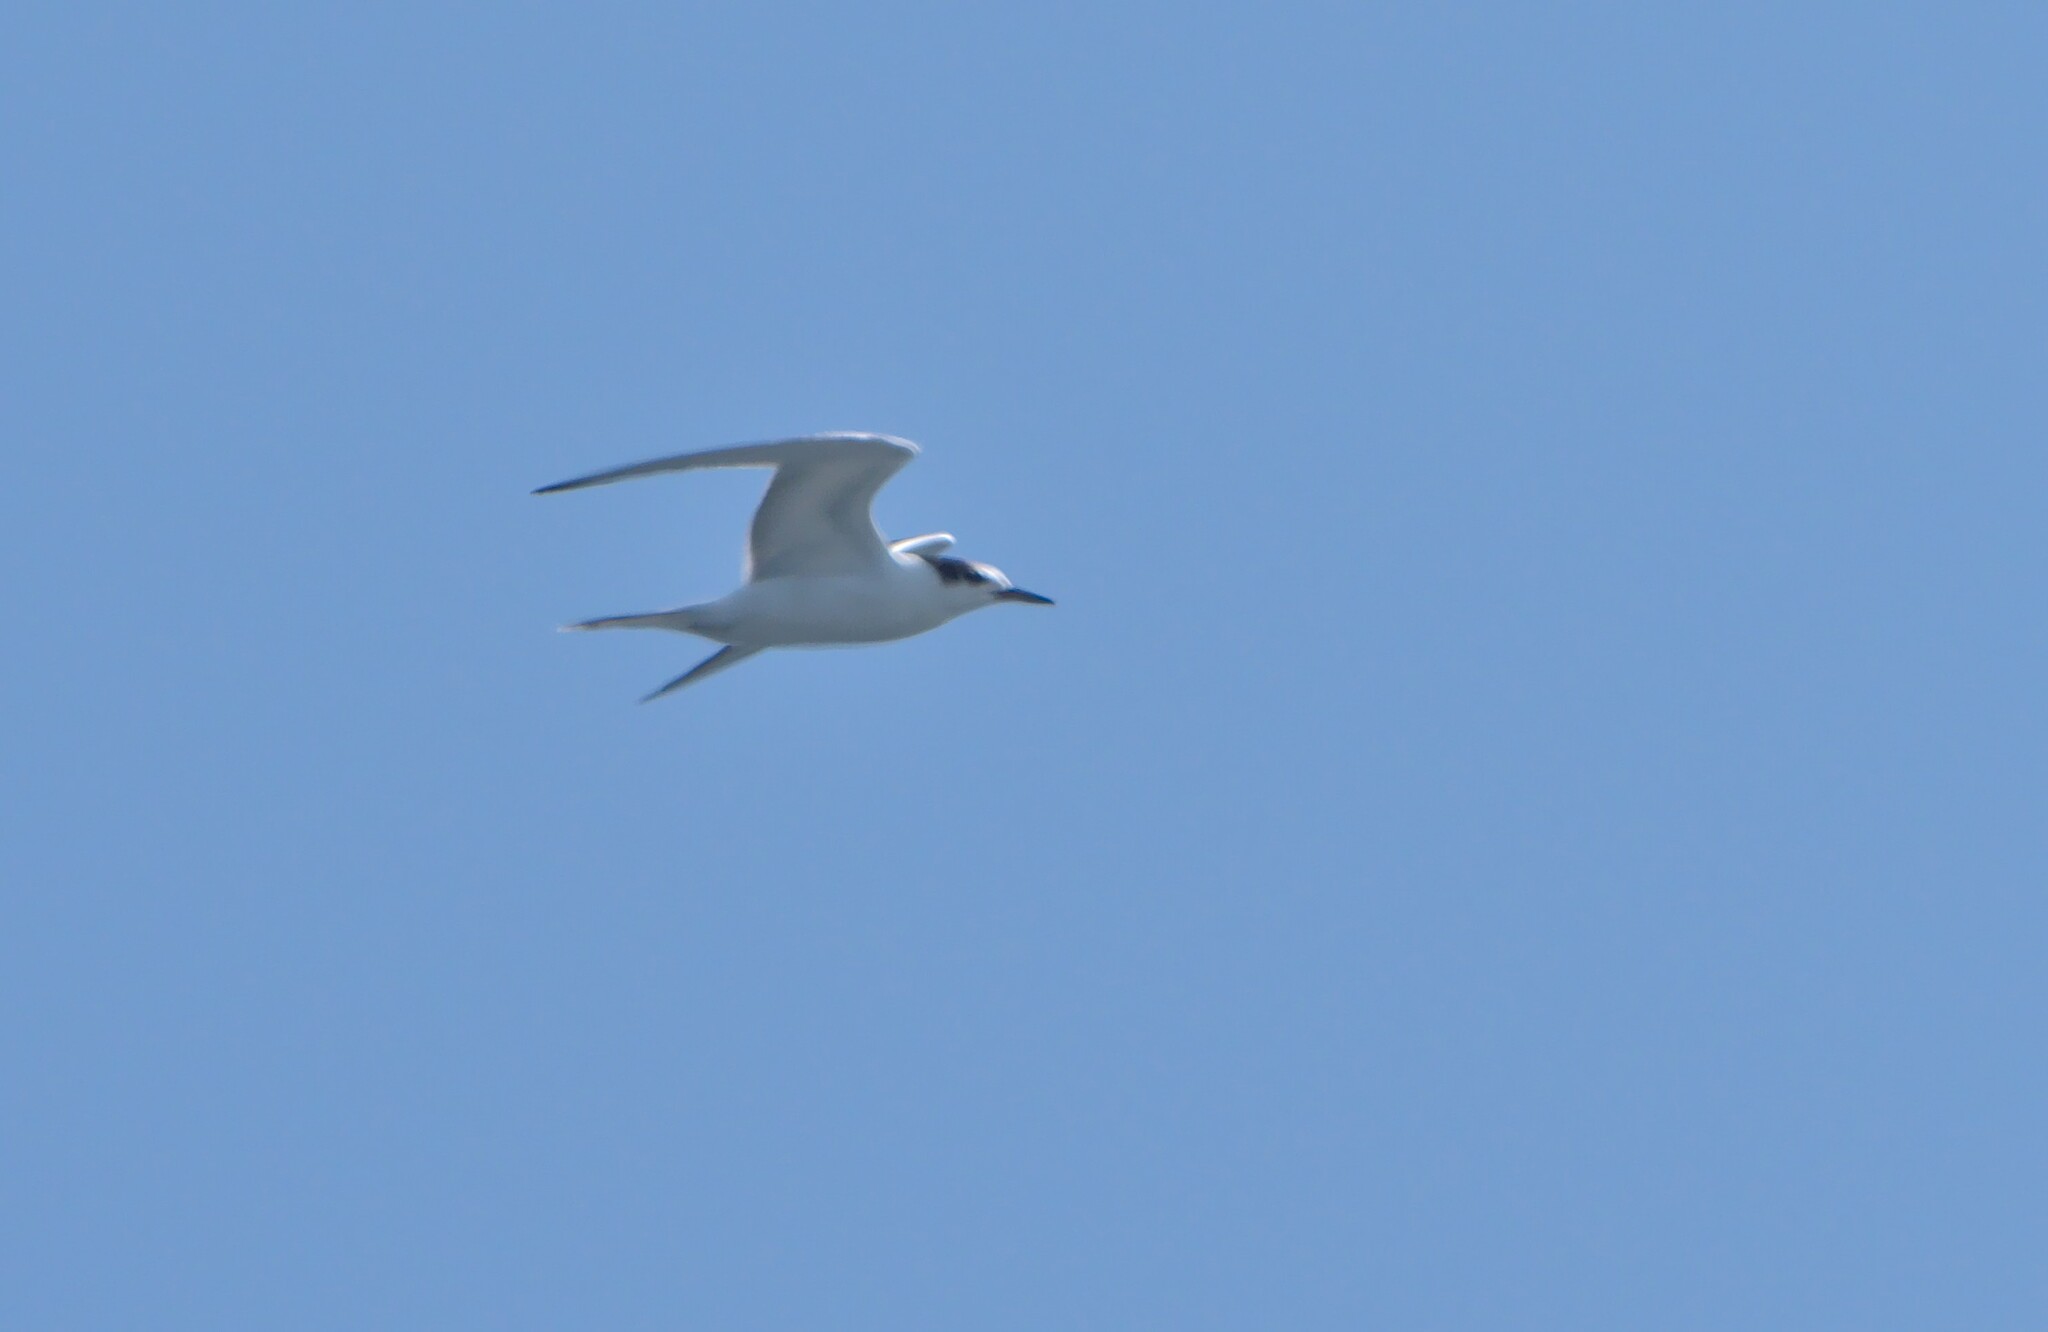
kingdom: Animalia
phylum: Chordata
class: Aves
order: Charadriiformes
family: Laridae
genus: Sterna
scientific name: Sterna hirundo
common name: Common tern
